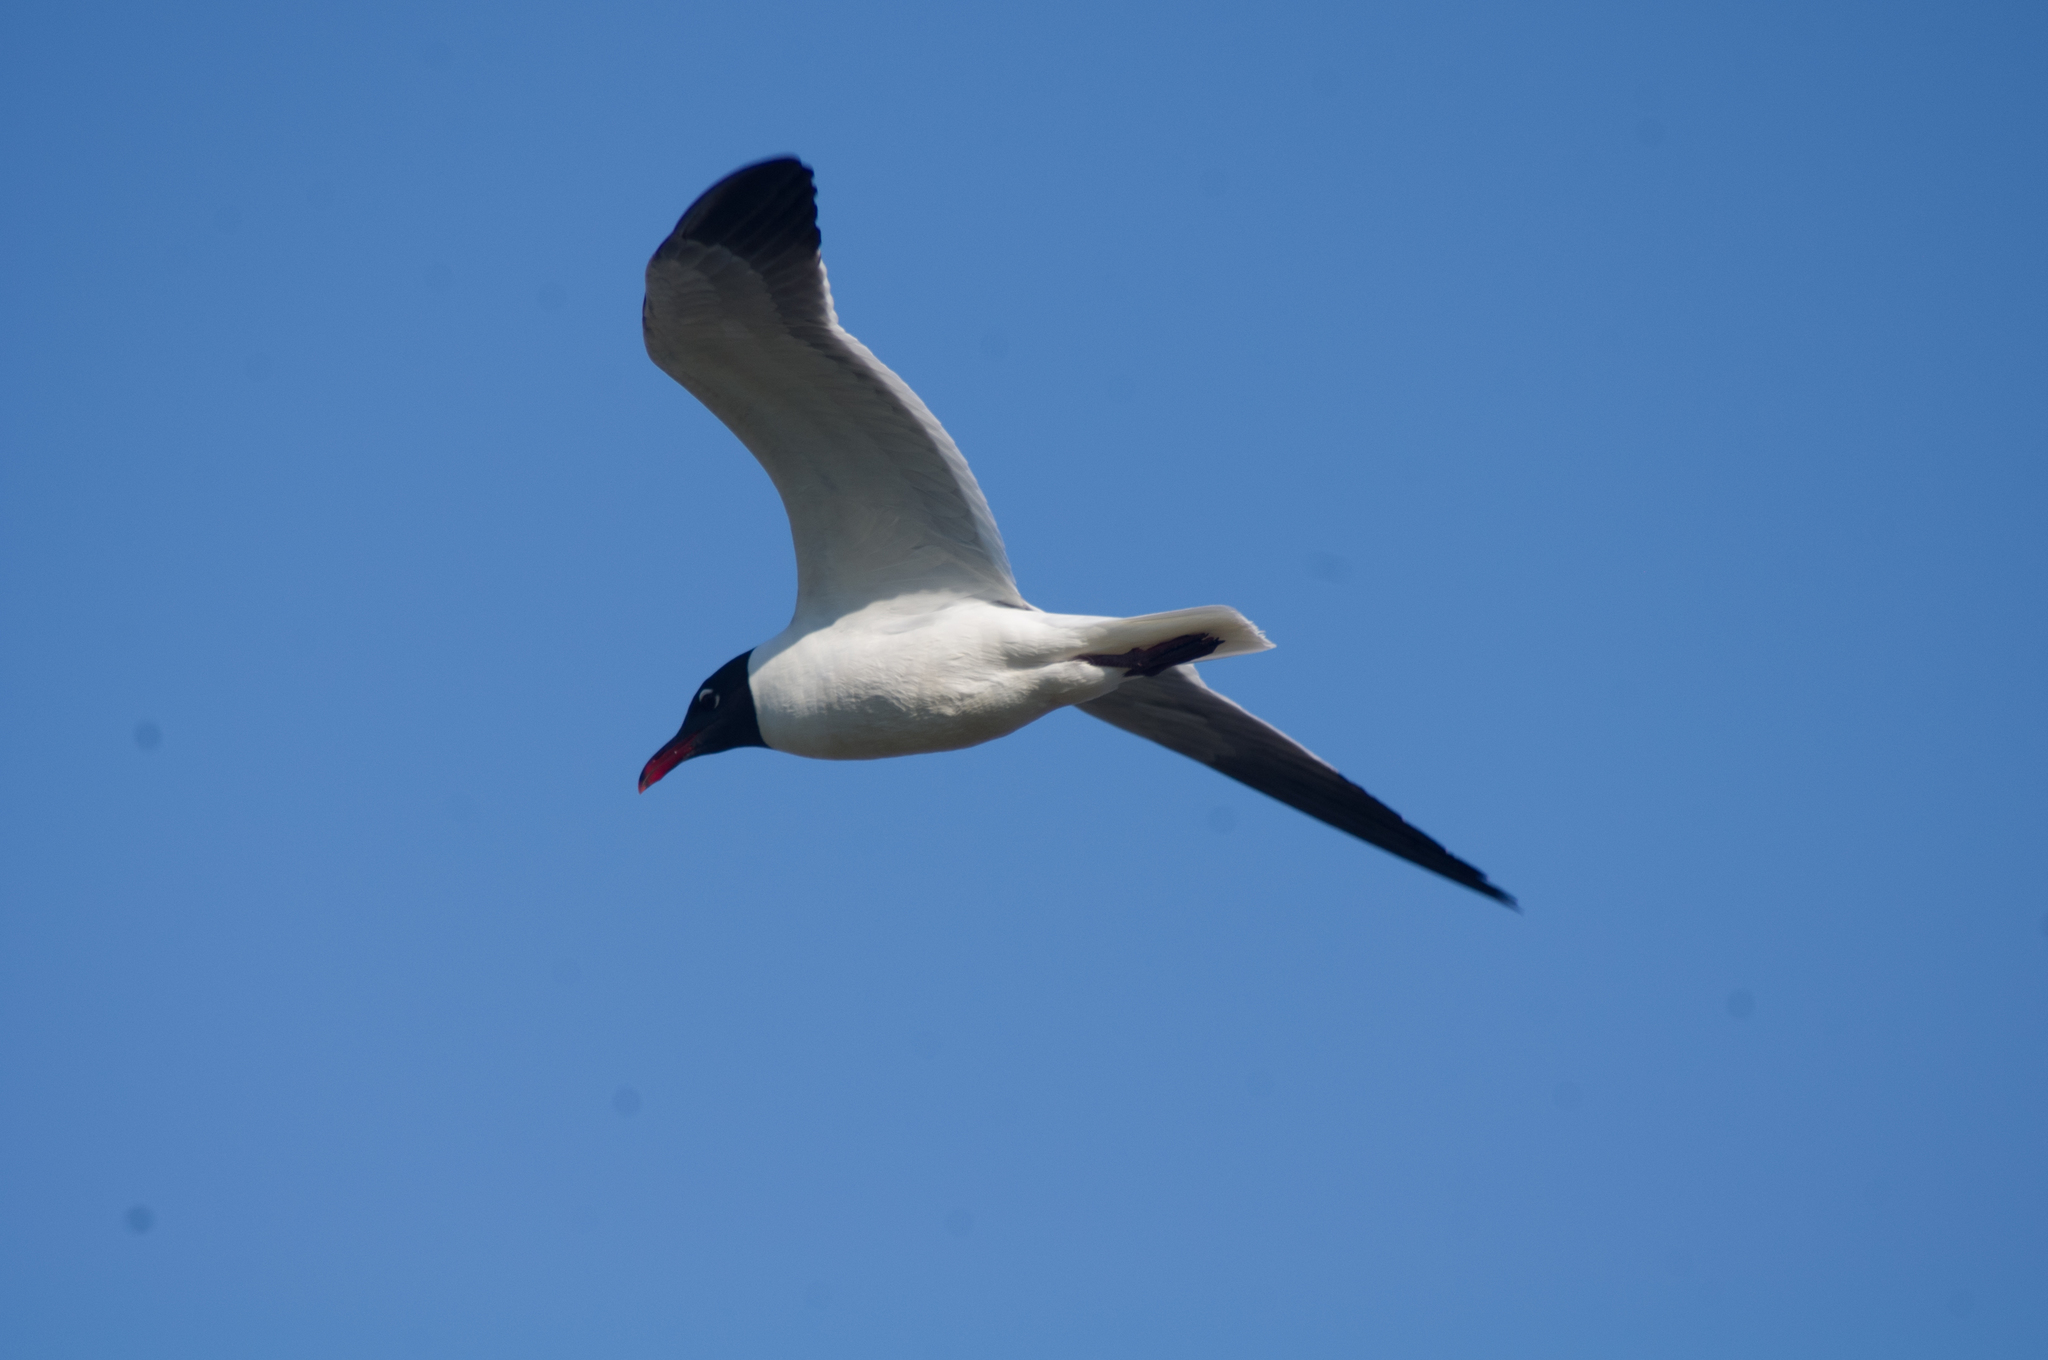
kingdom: Animalia
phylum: Chordata
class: Aves
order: Charadriiformes
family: Laridae
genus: Leucophaeus
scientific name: Leucophaeus atricilla
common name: Laughing gull
